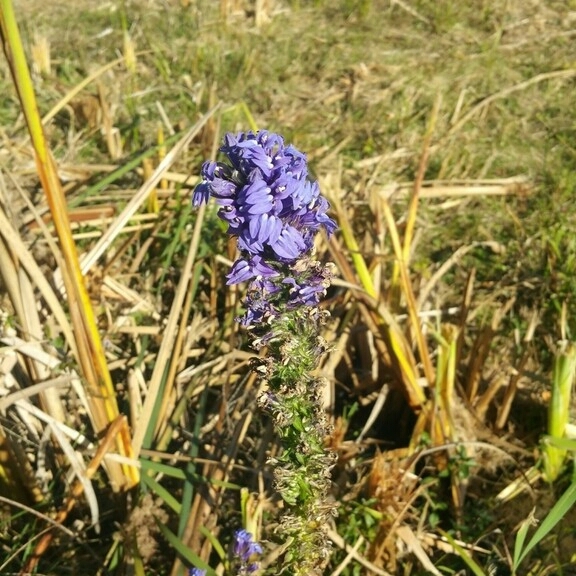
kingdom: Plantae
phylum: Tracheophyta
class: Magnoliopsida
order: Asterales
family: Campanulaceae
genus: Lobelia
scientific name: Lobelia siphilitica
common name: Great lobelia
